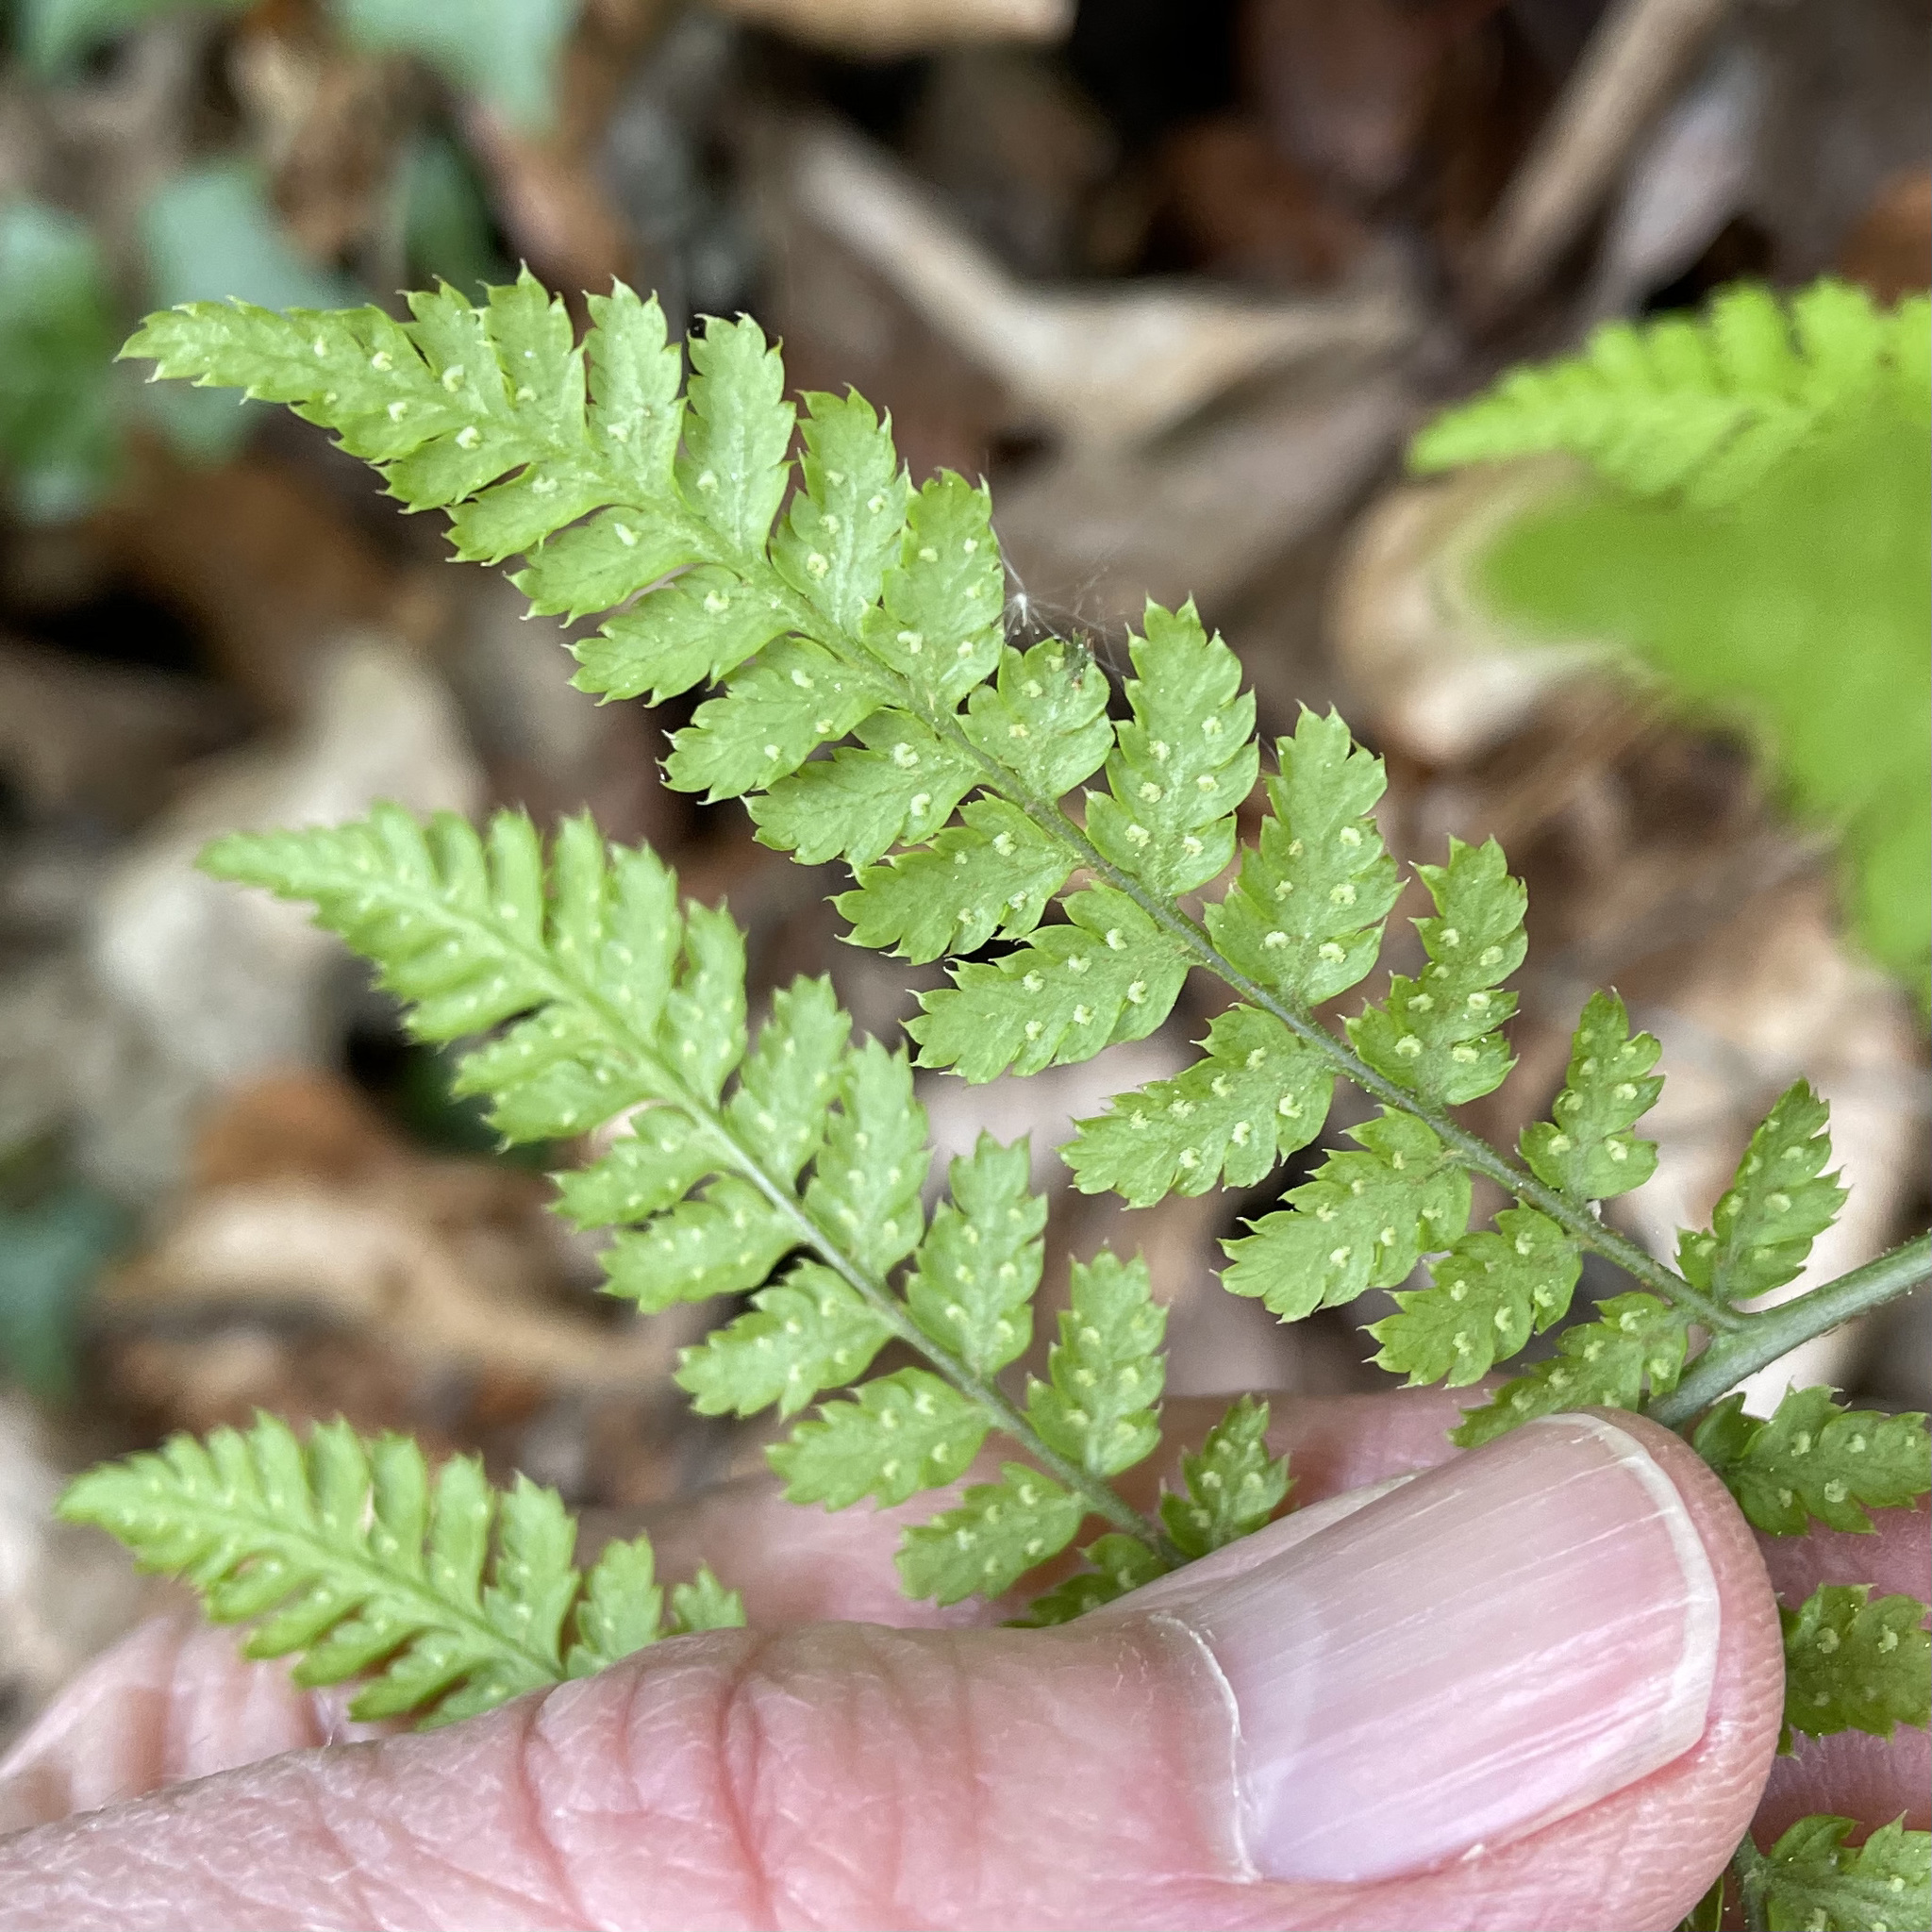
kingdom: Plantae
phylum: Tracheophyta
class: Polypodiopsida
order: Polypodiales
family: Dryopteridaceae
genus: Dryopteris
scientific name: Dryopteris dilatata
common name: Broad buckler-fern
